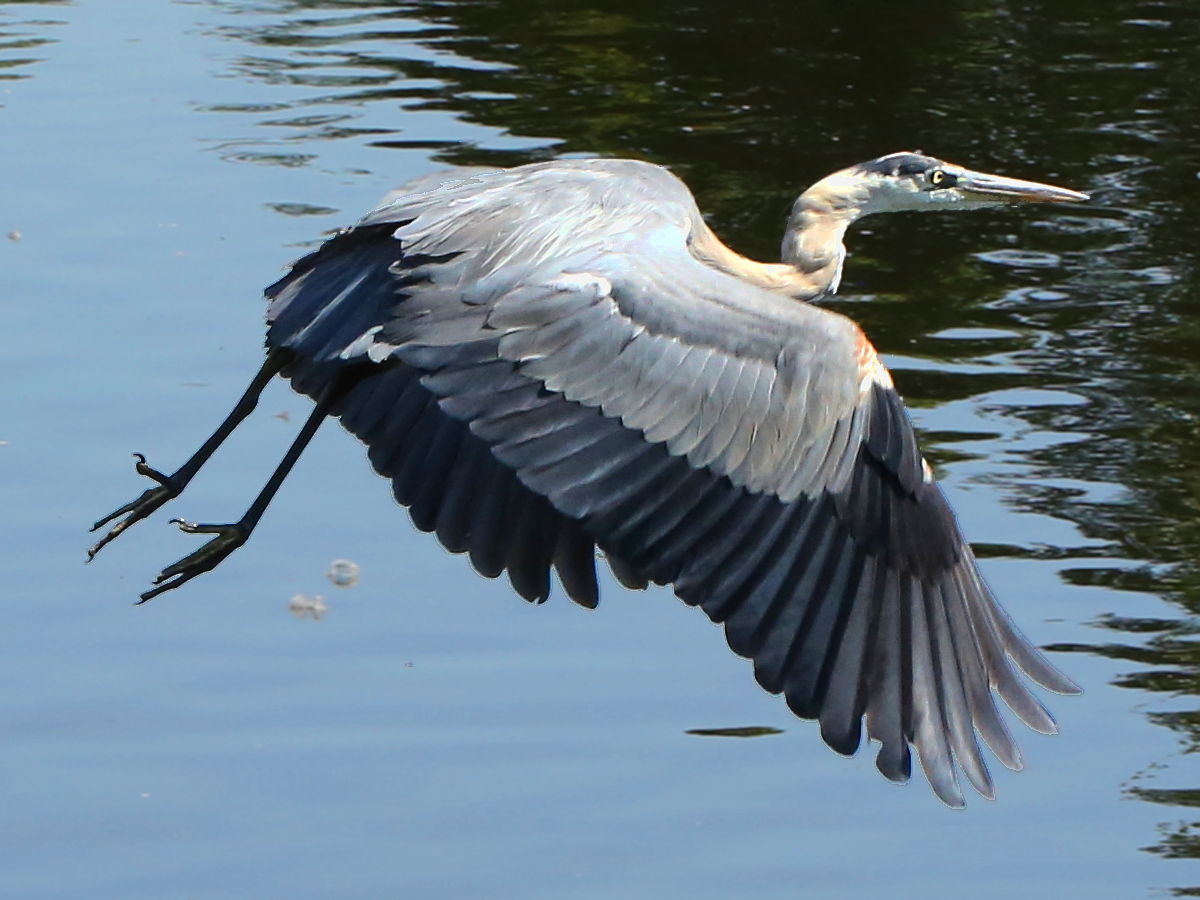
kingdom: Animalia
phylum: Chordata
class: Aves
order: Pelecaniformes
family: Ardeidae
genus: Ardea
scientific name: Ardea herodias
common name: Great blue heron
